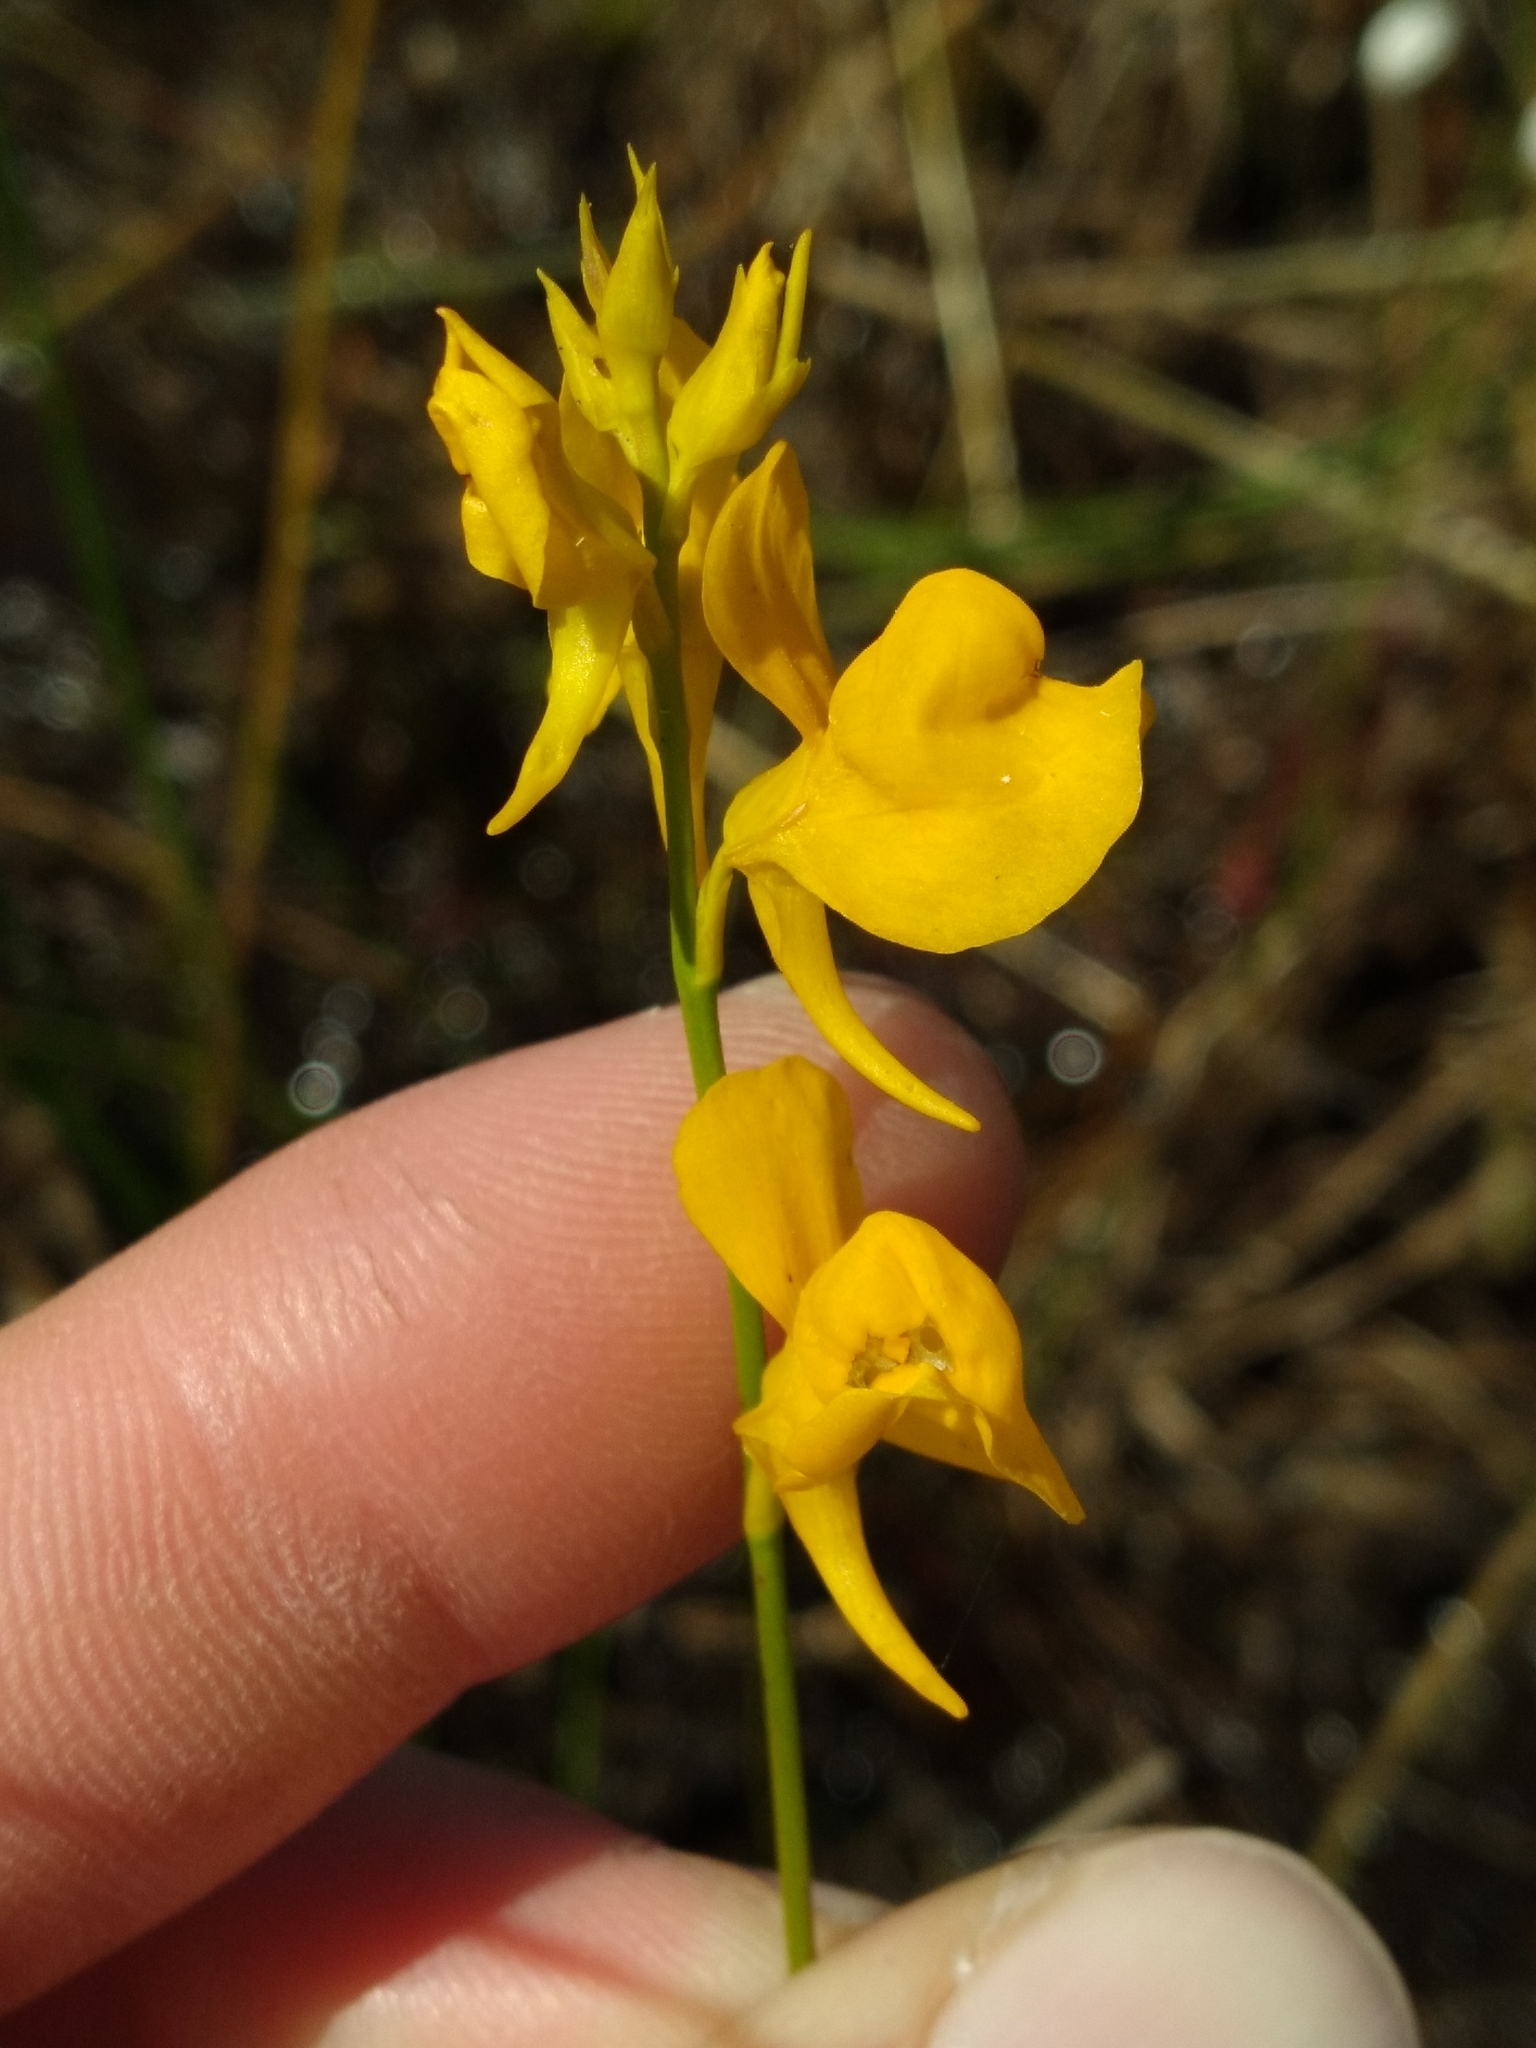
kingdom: Plantae
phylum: Tracheophyta
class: Magnoliopsida
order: Lamiales
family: Lentibulariaceae
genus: Utricularia
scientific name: Utricularia cornuta
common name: Horned bladderwort
